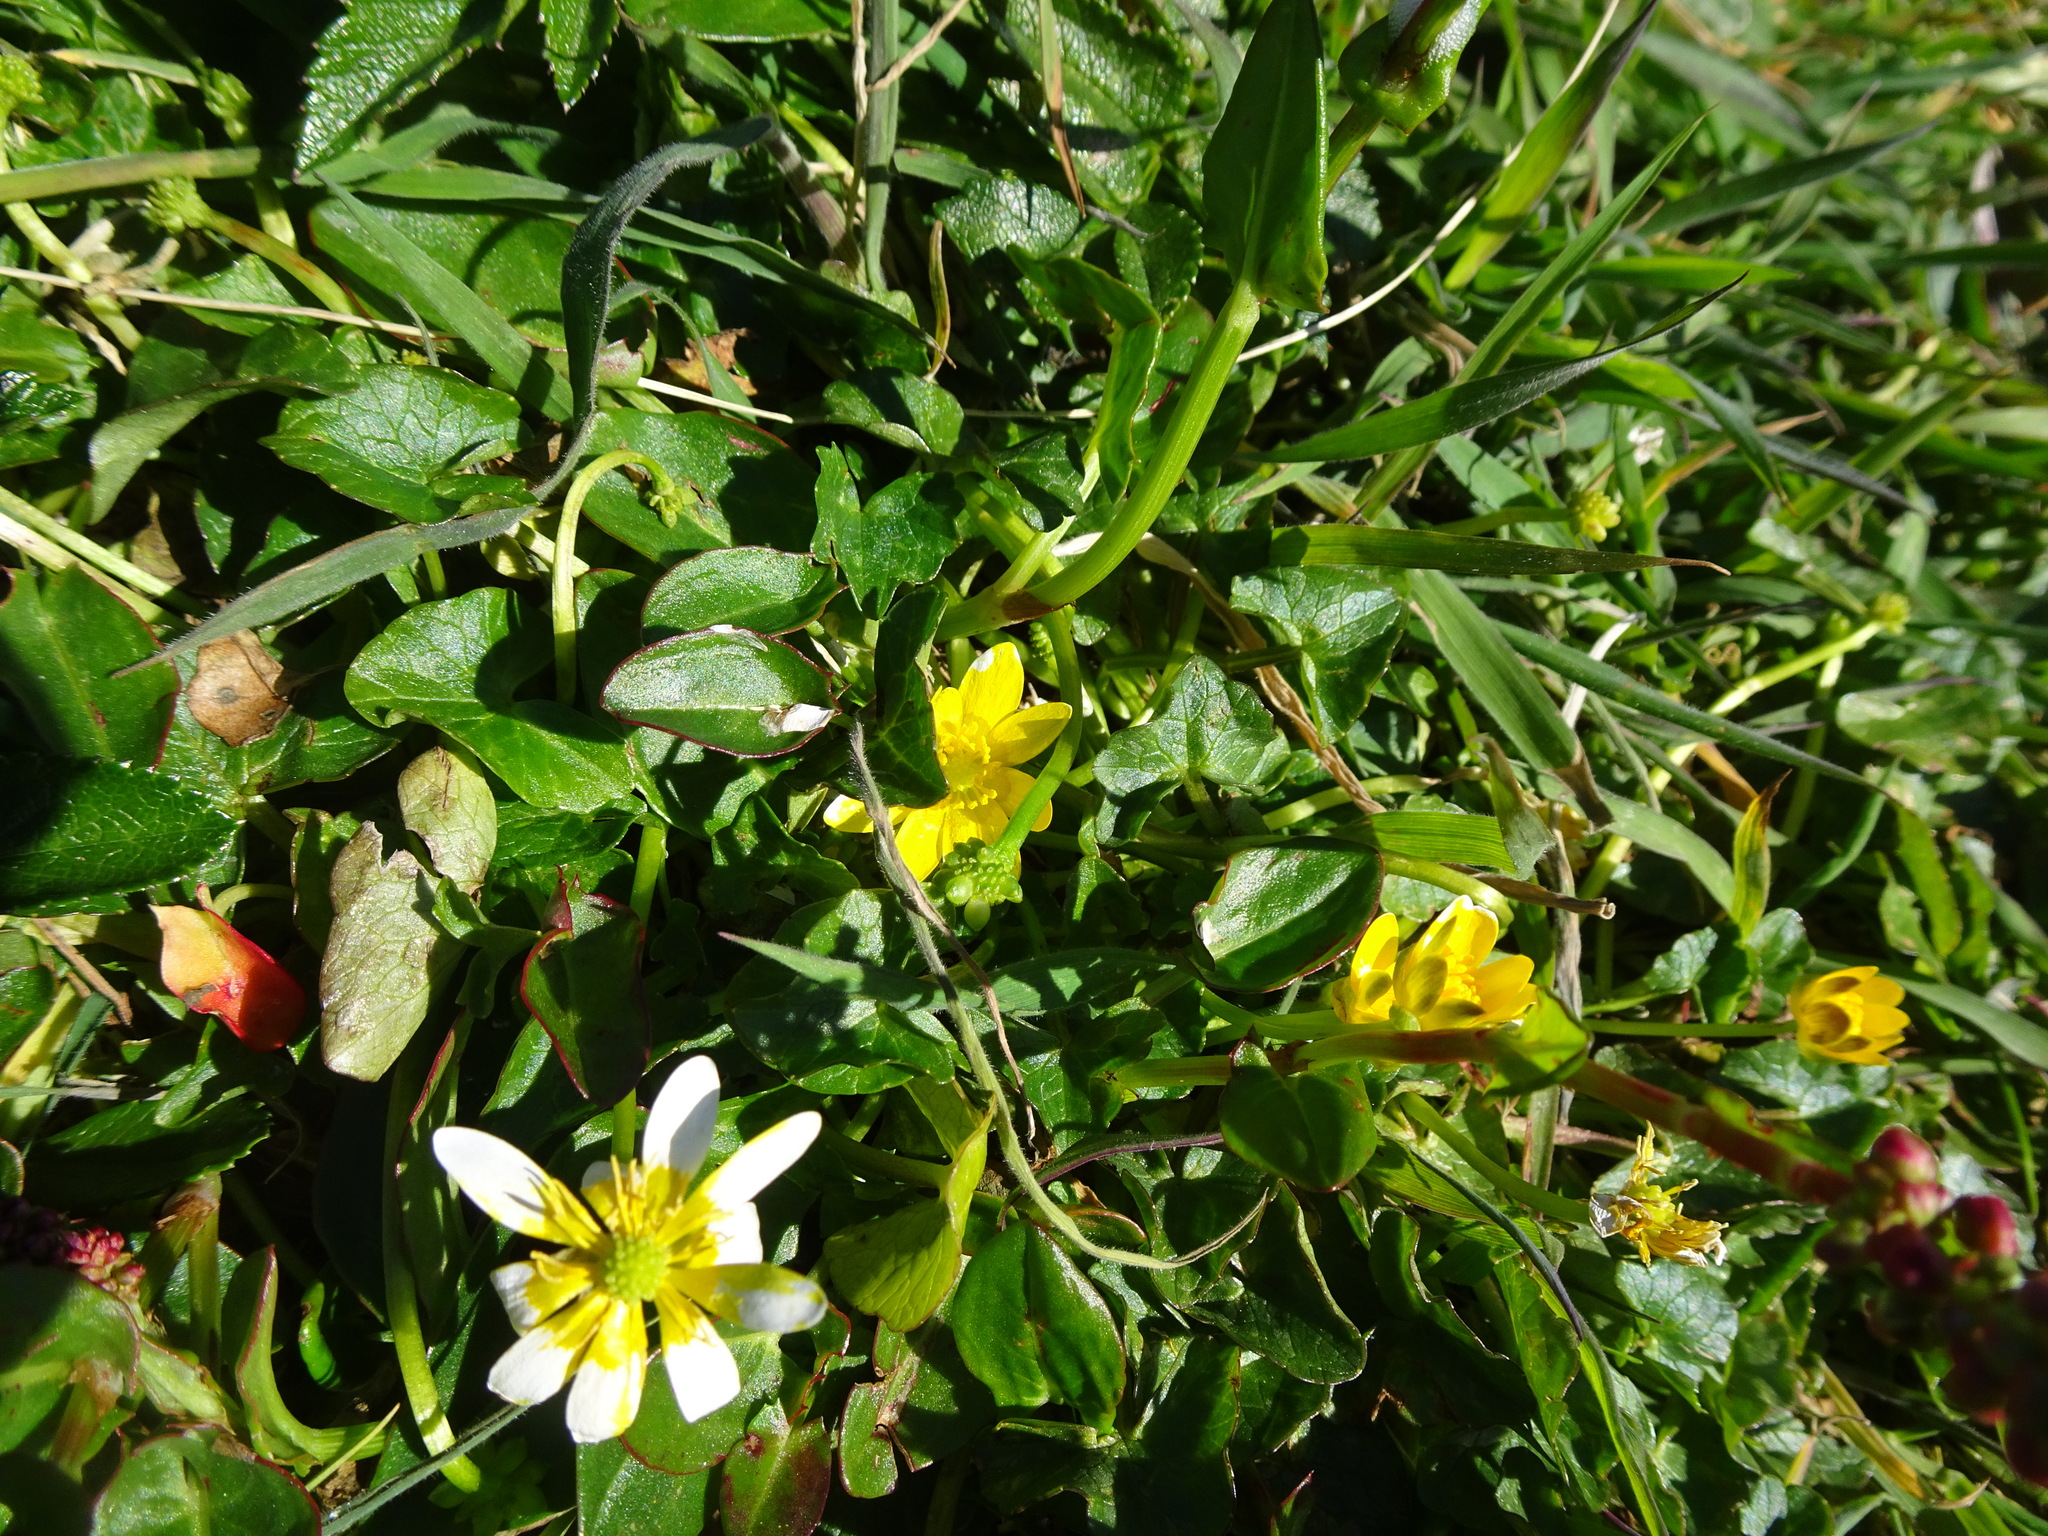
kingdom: Plantae
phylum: Tracheophyta
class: Magnoliopsida
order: Ranunculales
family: Ranunculaceae
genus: Ficaria
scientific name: Ficaria verna
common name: Lesser celandine
